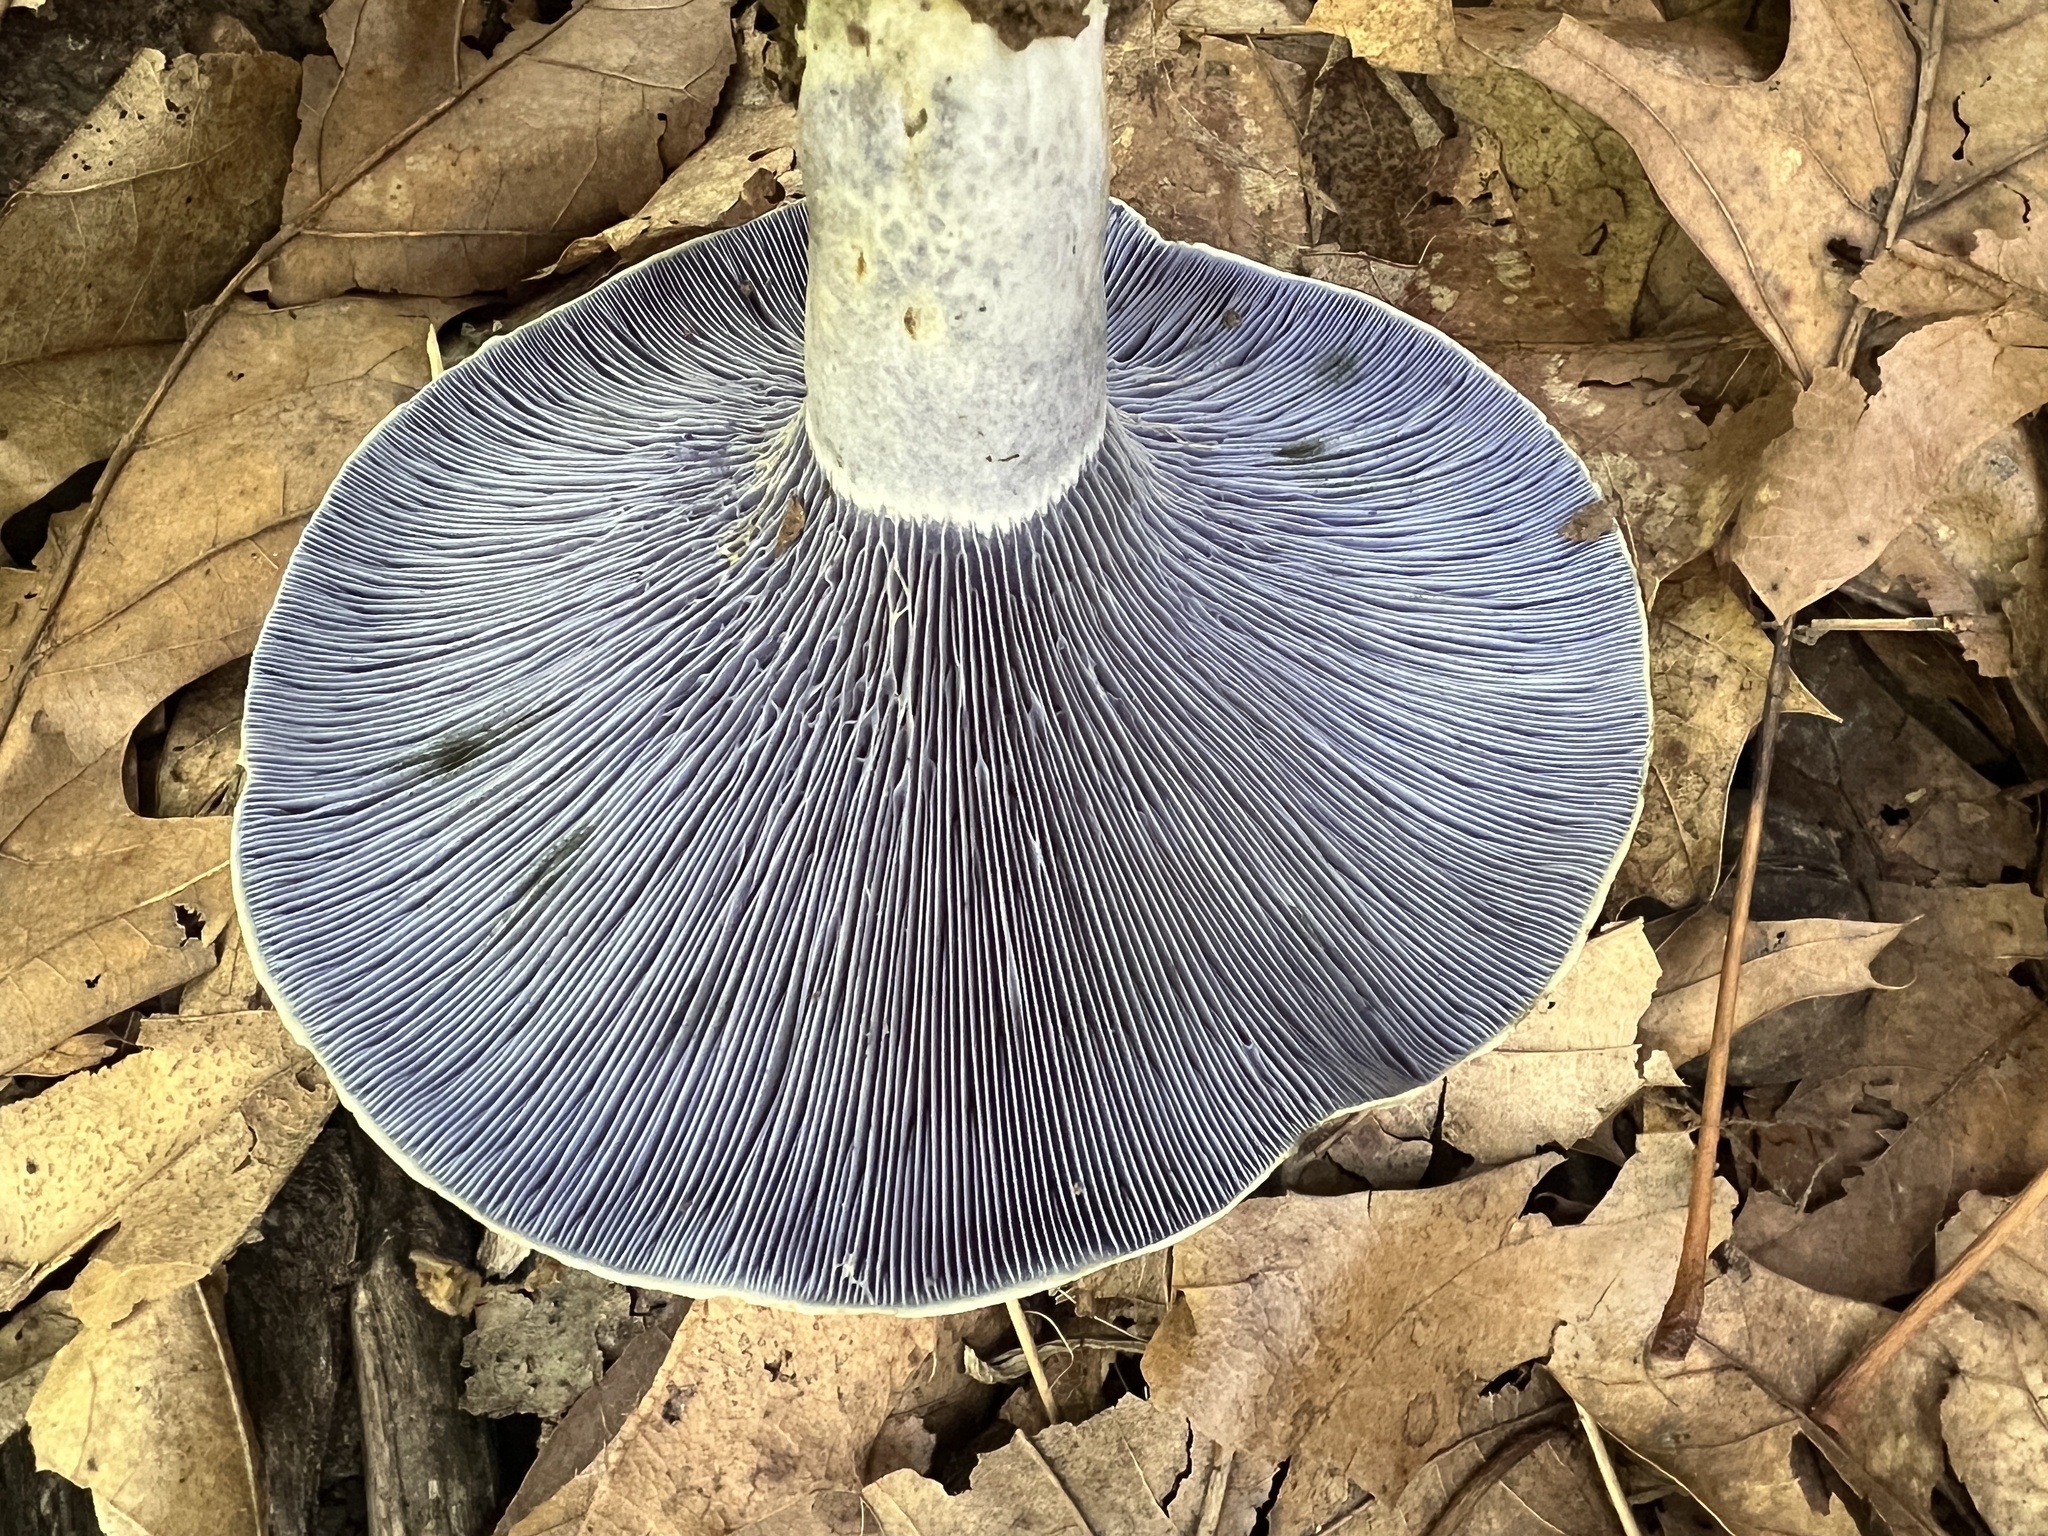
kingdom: Fungi
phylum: Basidiomycota
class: Agaricomycetes
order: Russulales
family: Russulaceae
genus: Lactarius
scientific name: Lactarius indigo
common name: Indigo milk cap
